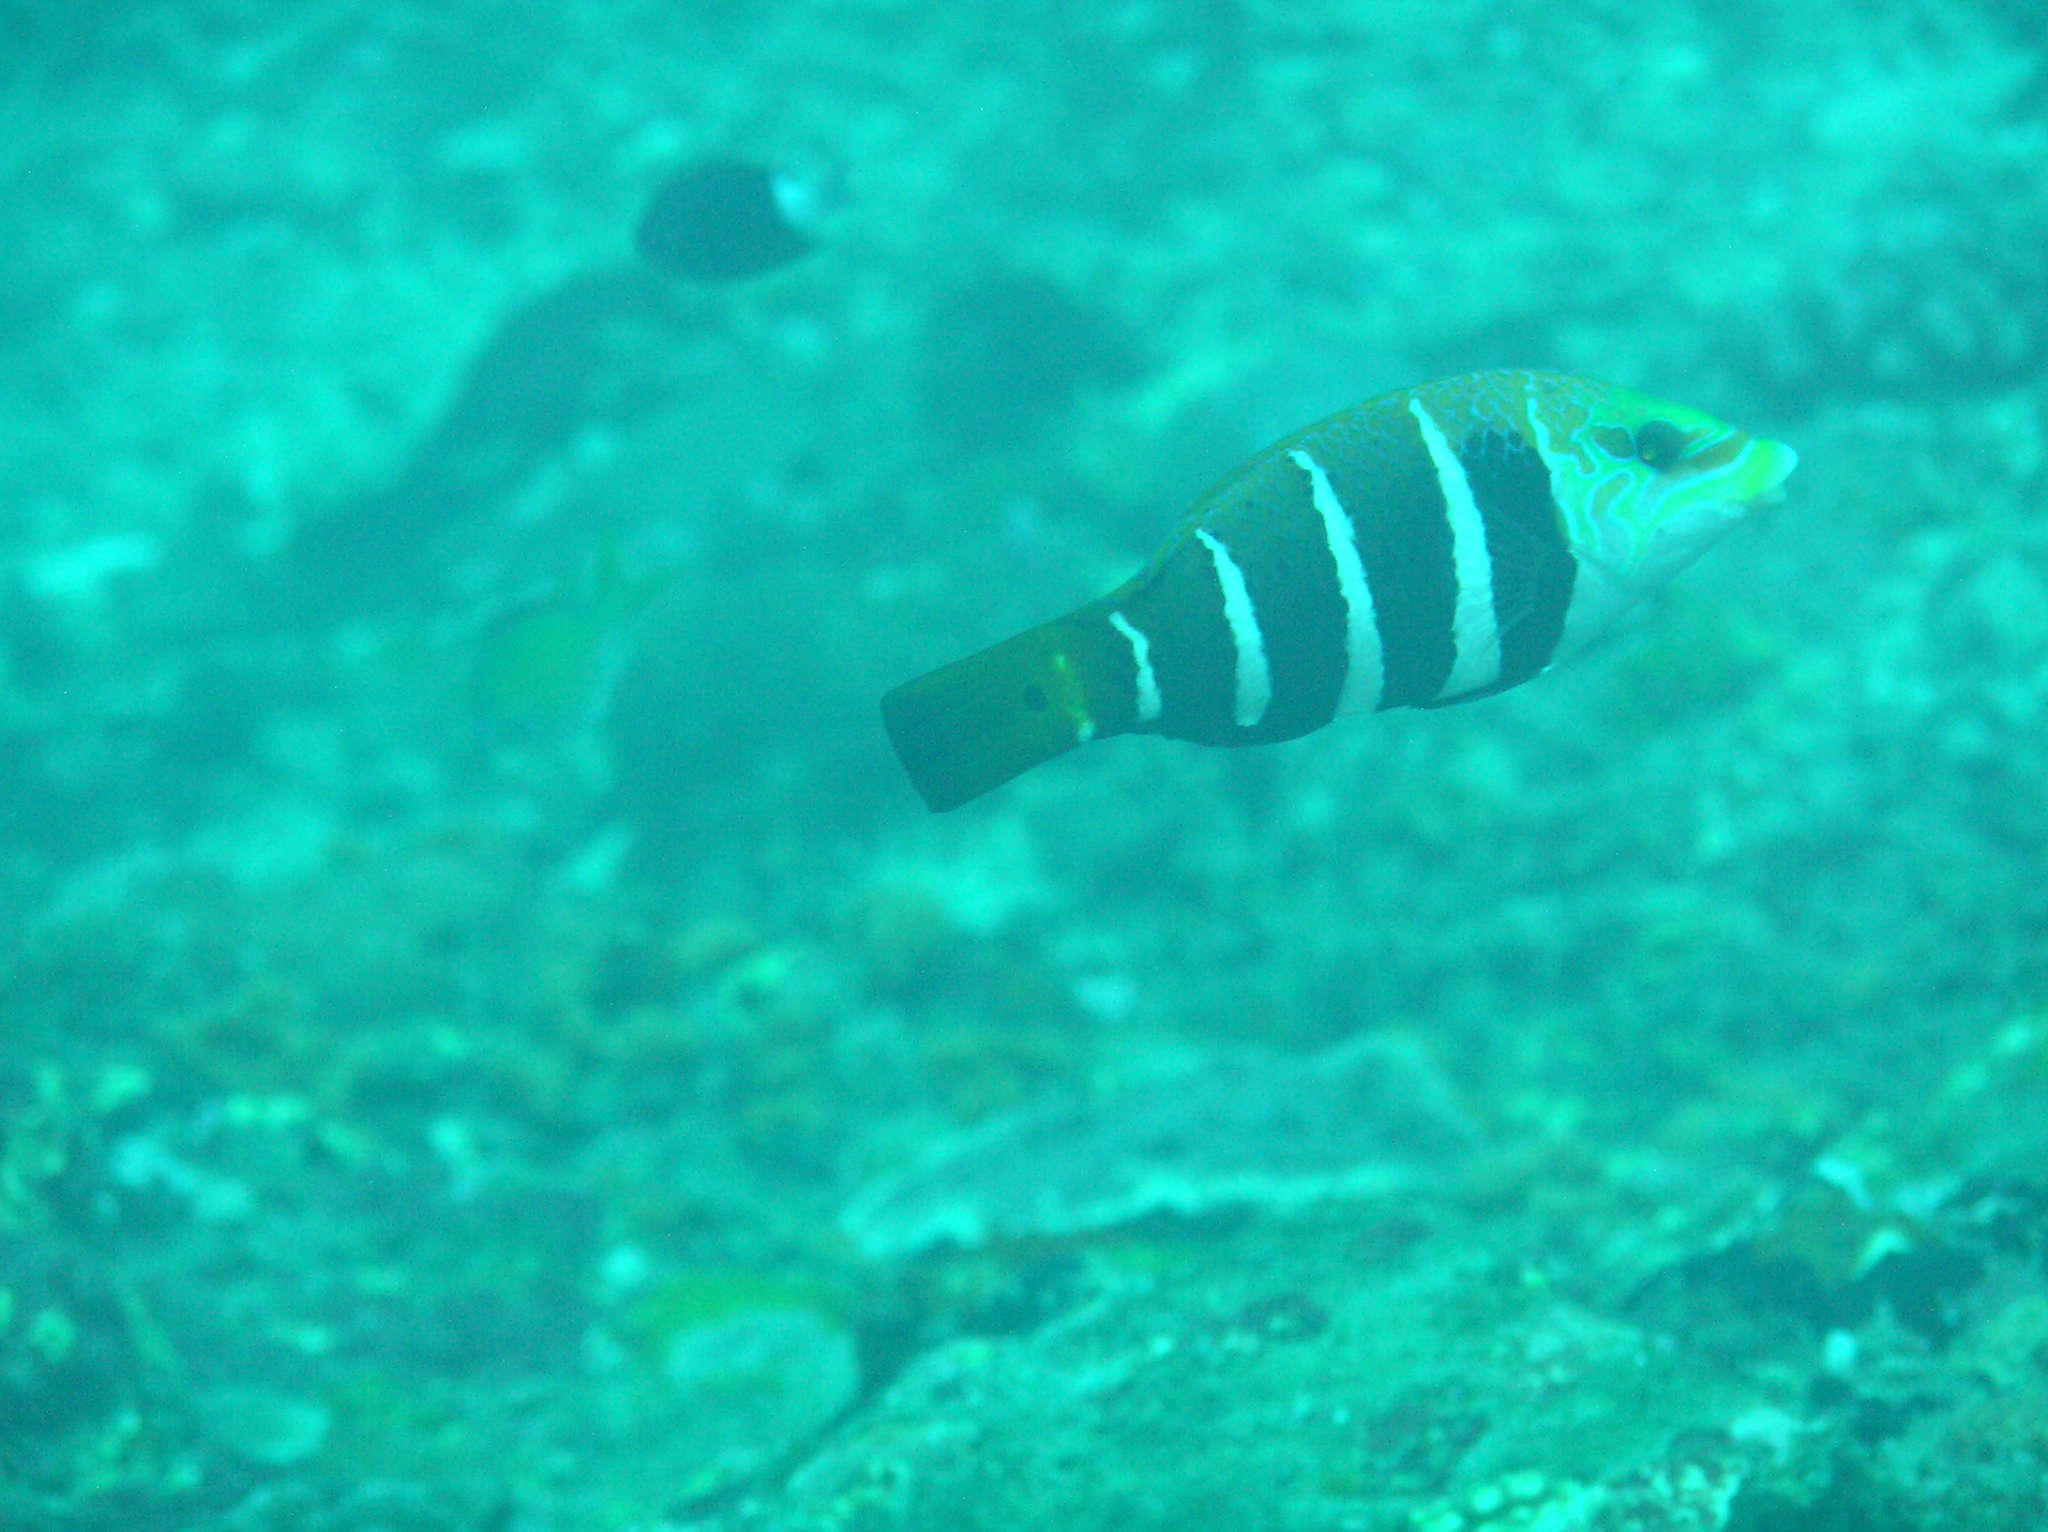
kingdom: Animalia
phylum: Chordata
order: Perciformes
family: Labridae
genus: Hemigymnus
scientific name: Hemigymnus fasciatus
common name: Barred thicklip
